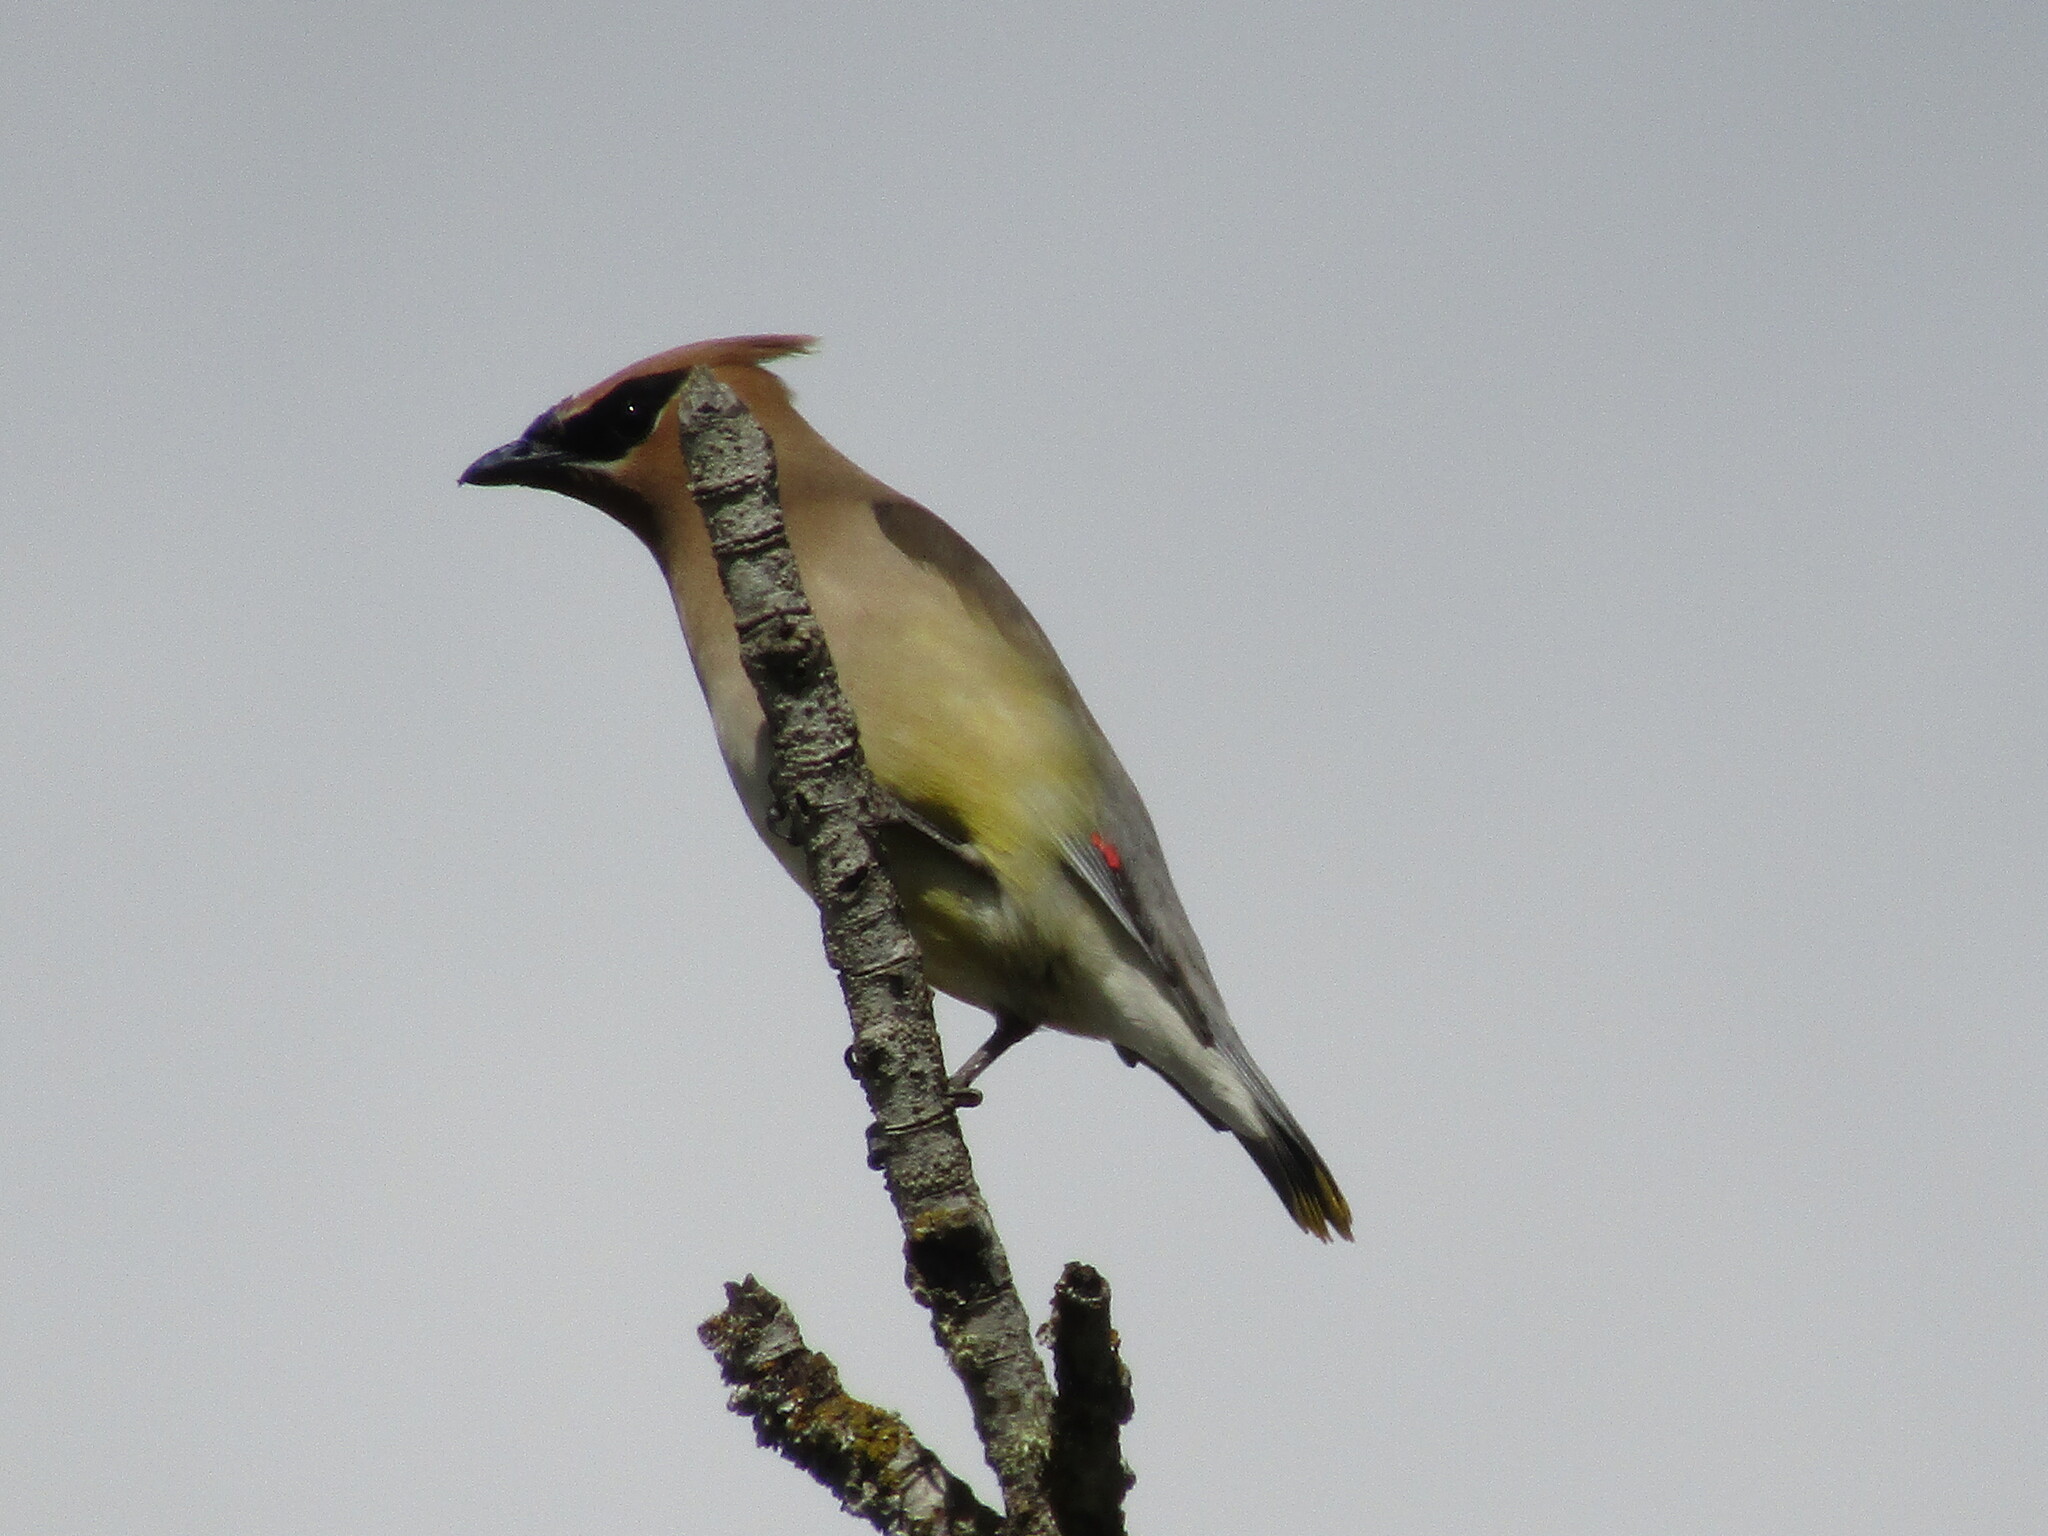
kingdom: Animalia
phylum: Chordata
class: Aves
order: Passeriformes
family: Bombycillidae
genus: Bombycilla
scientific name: Bombycilla cedrorum
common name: Cedar waxwing
